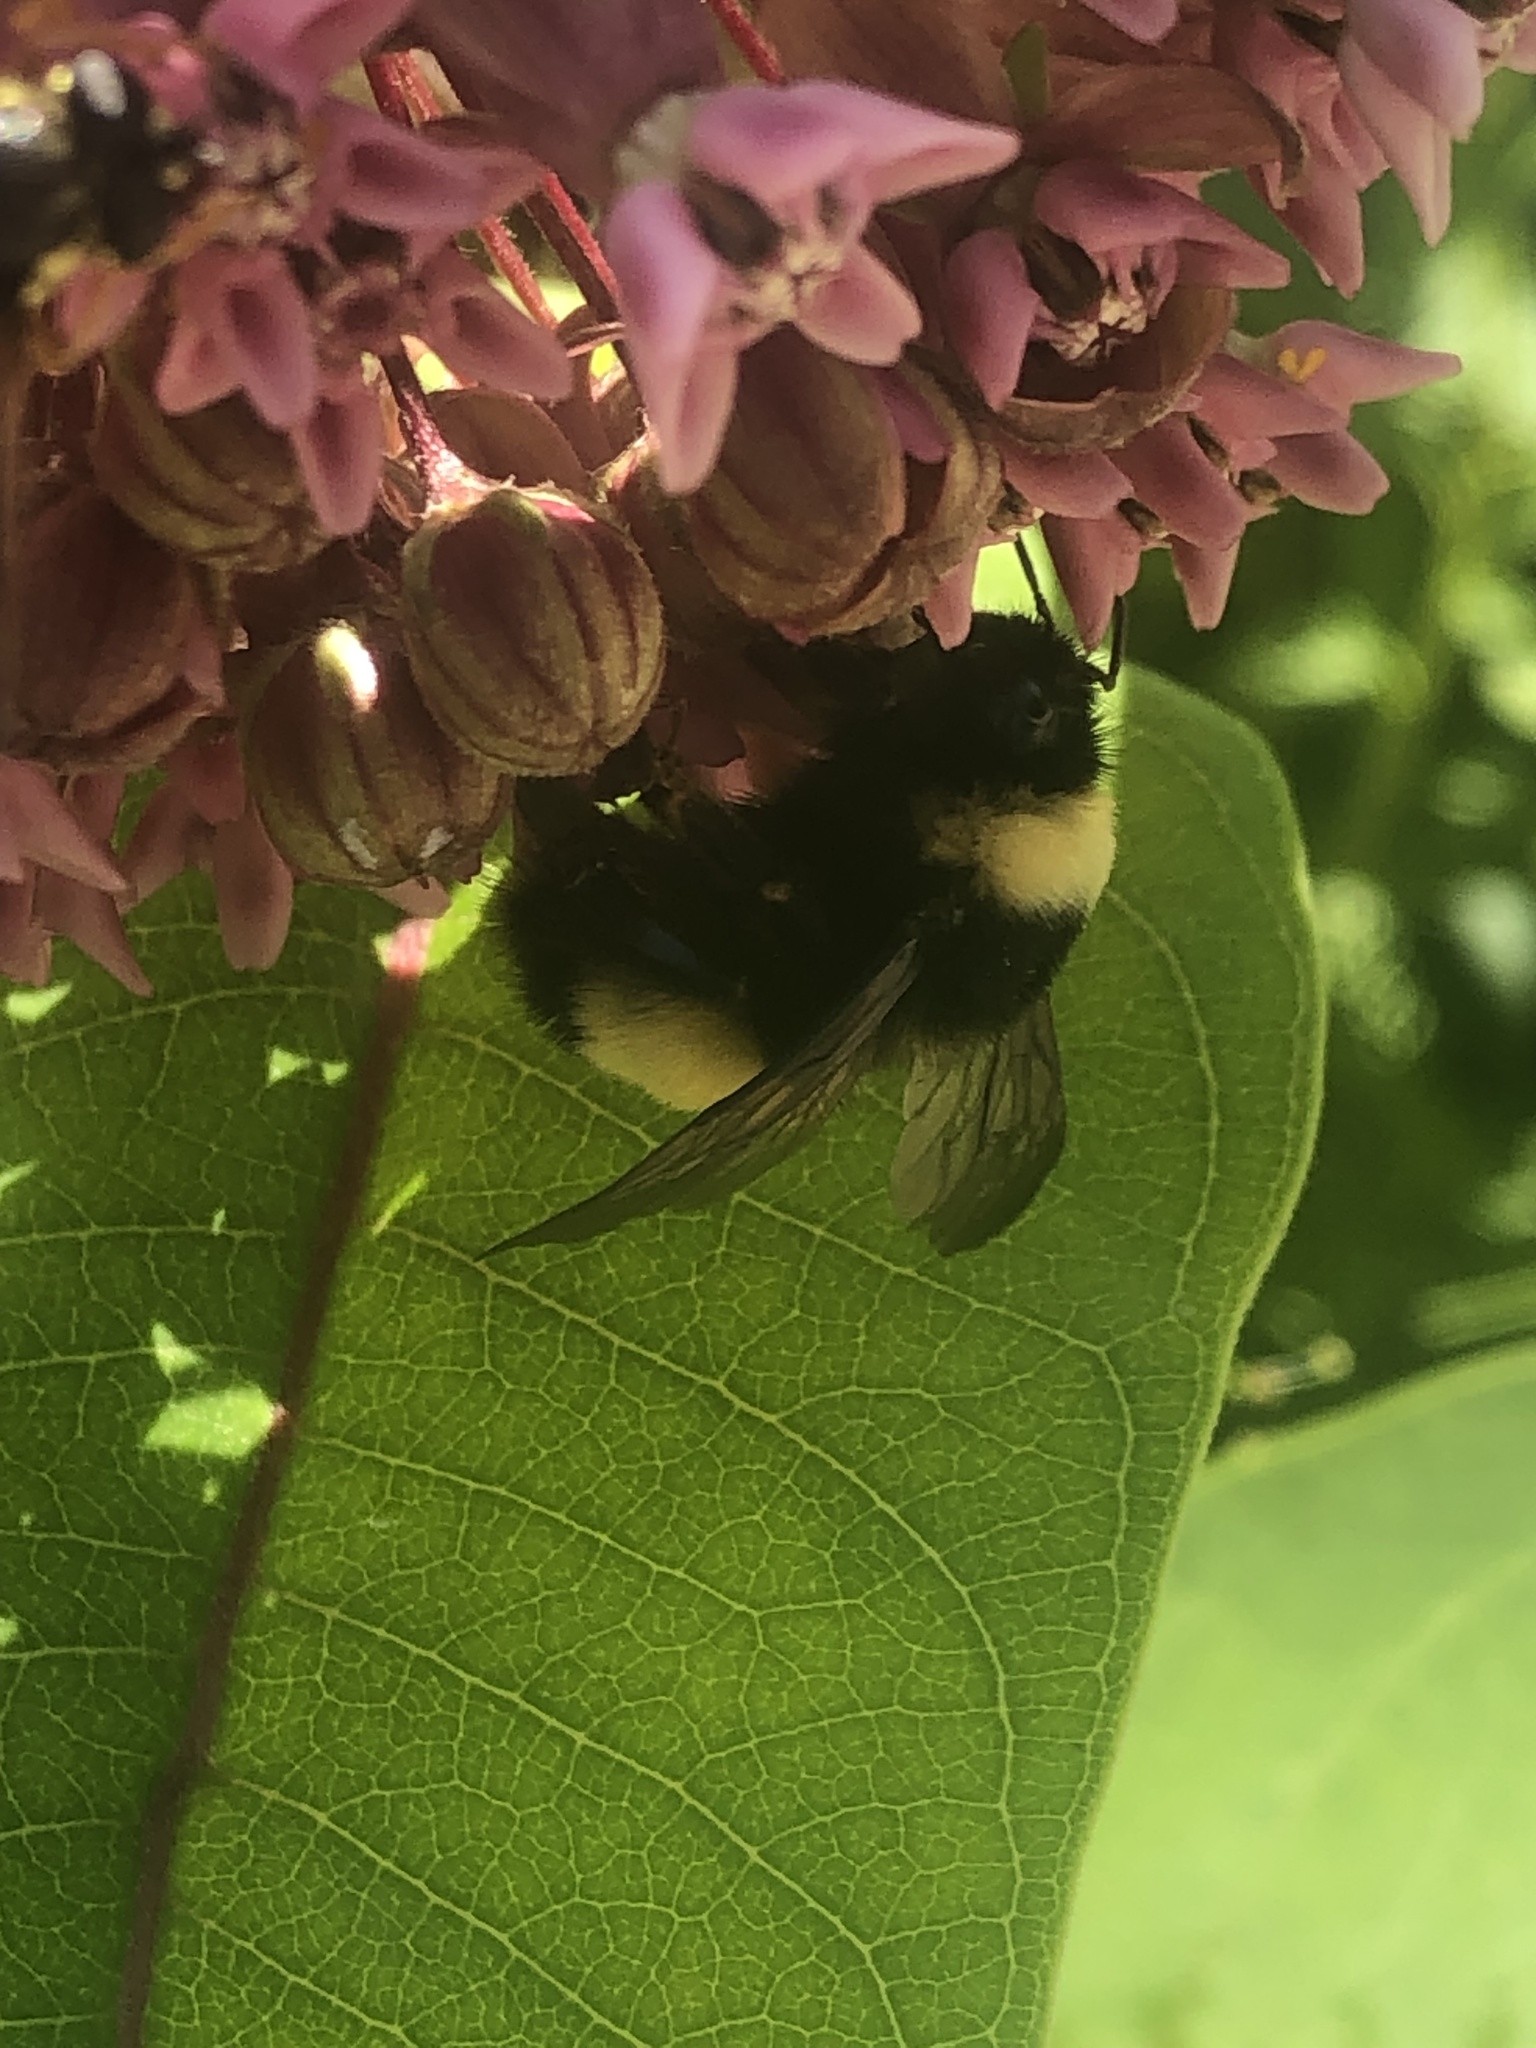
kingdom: Animalia
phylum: Arthropoda
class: Insecta
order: Hymenoptera
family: Apidae
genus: Bombus
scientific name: Bombus terricola
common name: Yellow-banded bumble bee
